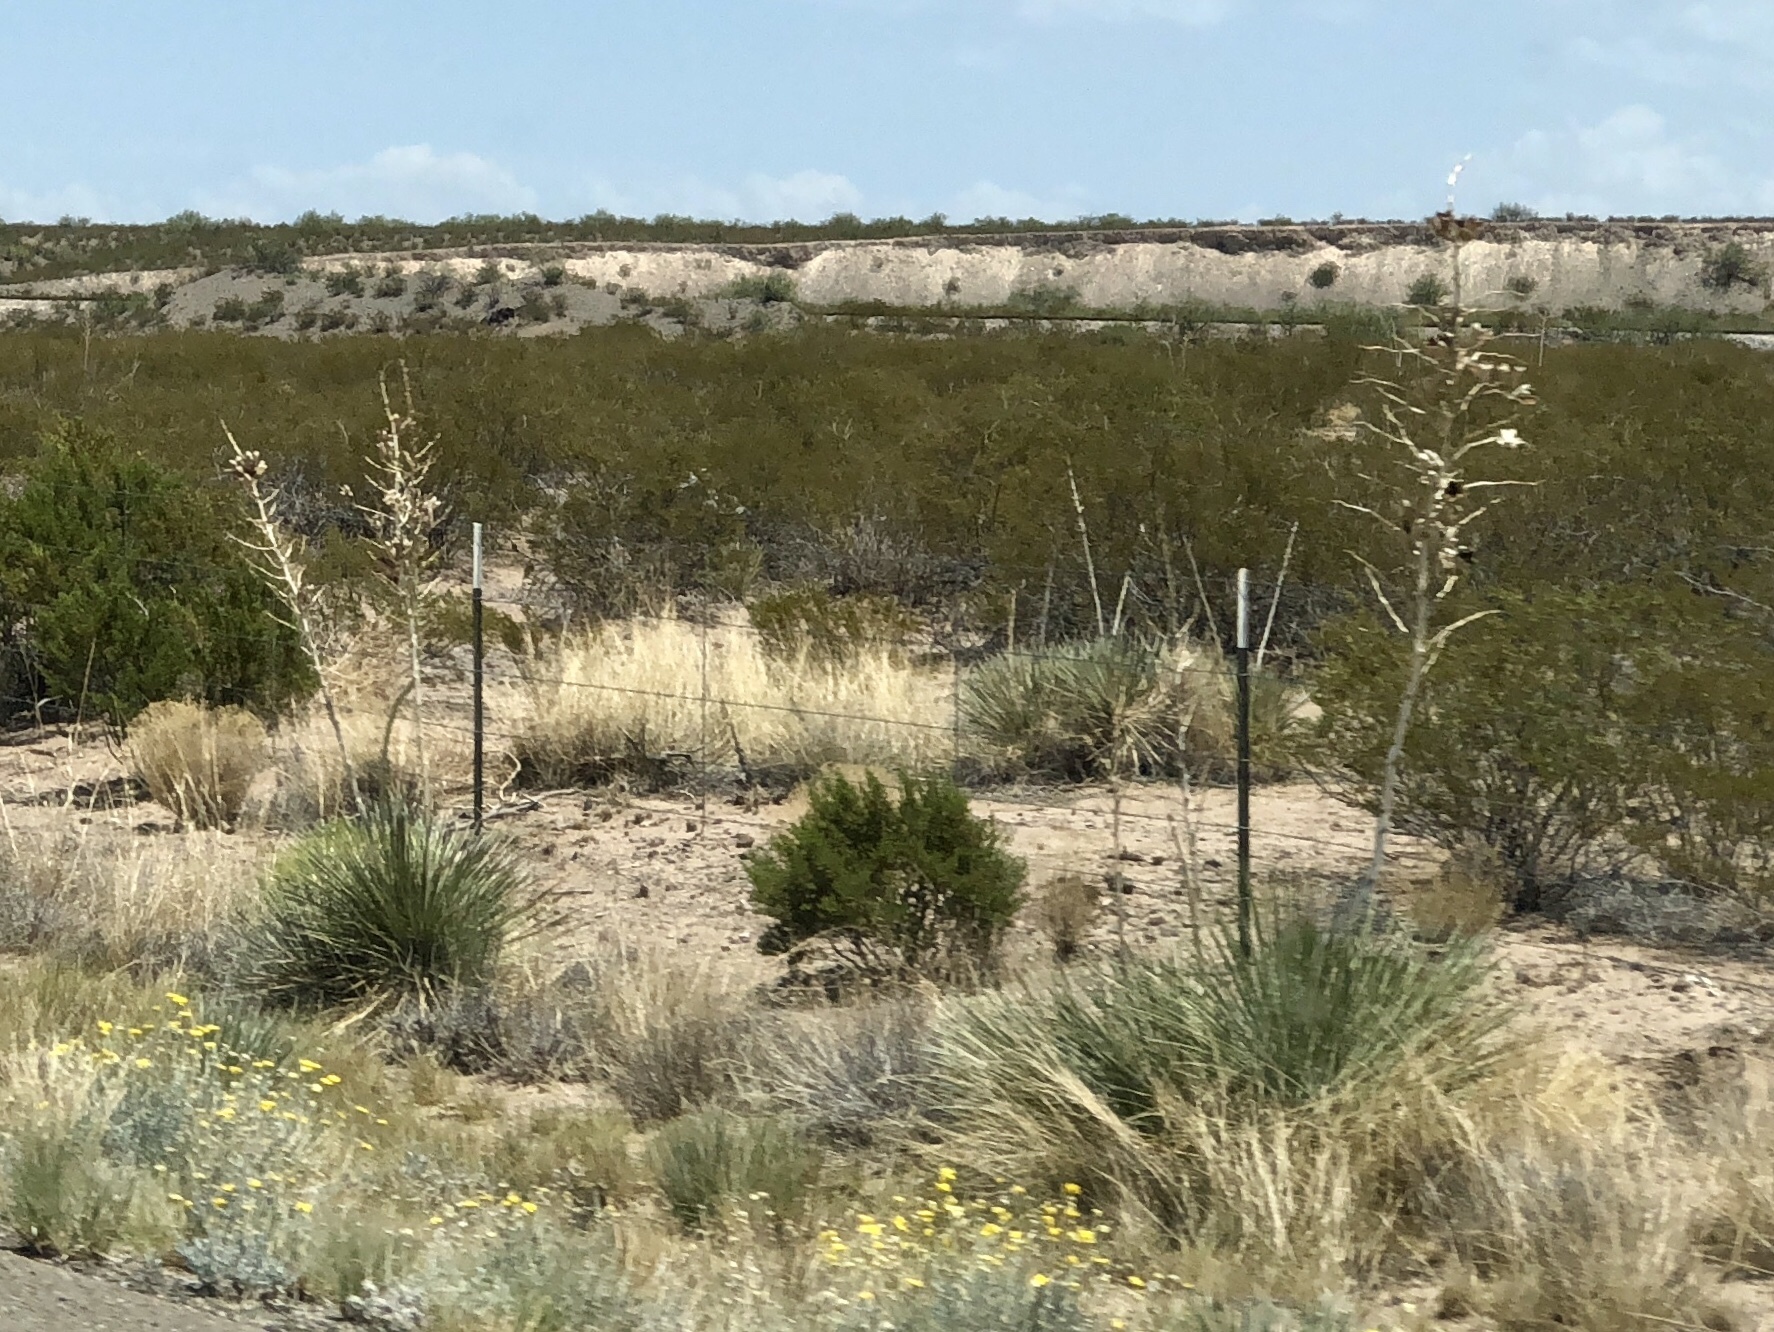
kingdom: Plantae
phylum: Tracheophyta
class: Liliopsida
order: Asparagales
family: Asparagaceae
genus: Yucca
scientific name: Yucca elata
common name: Palmella
